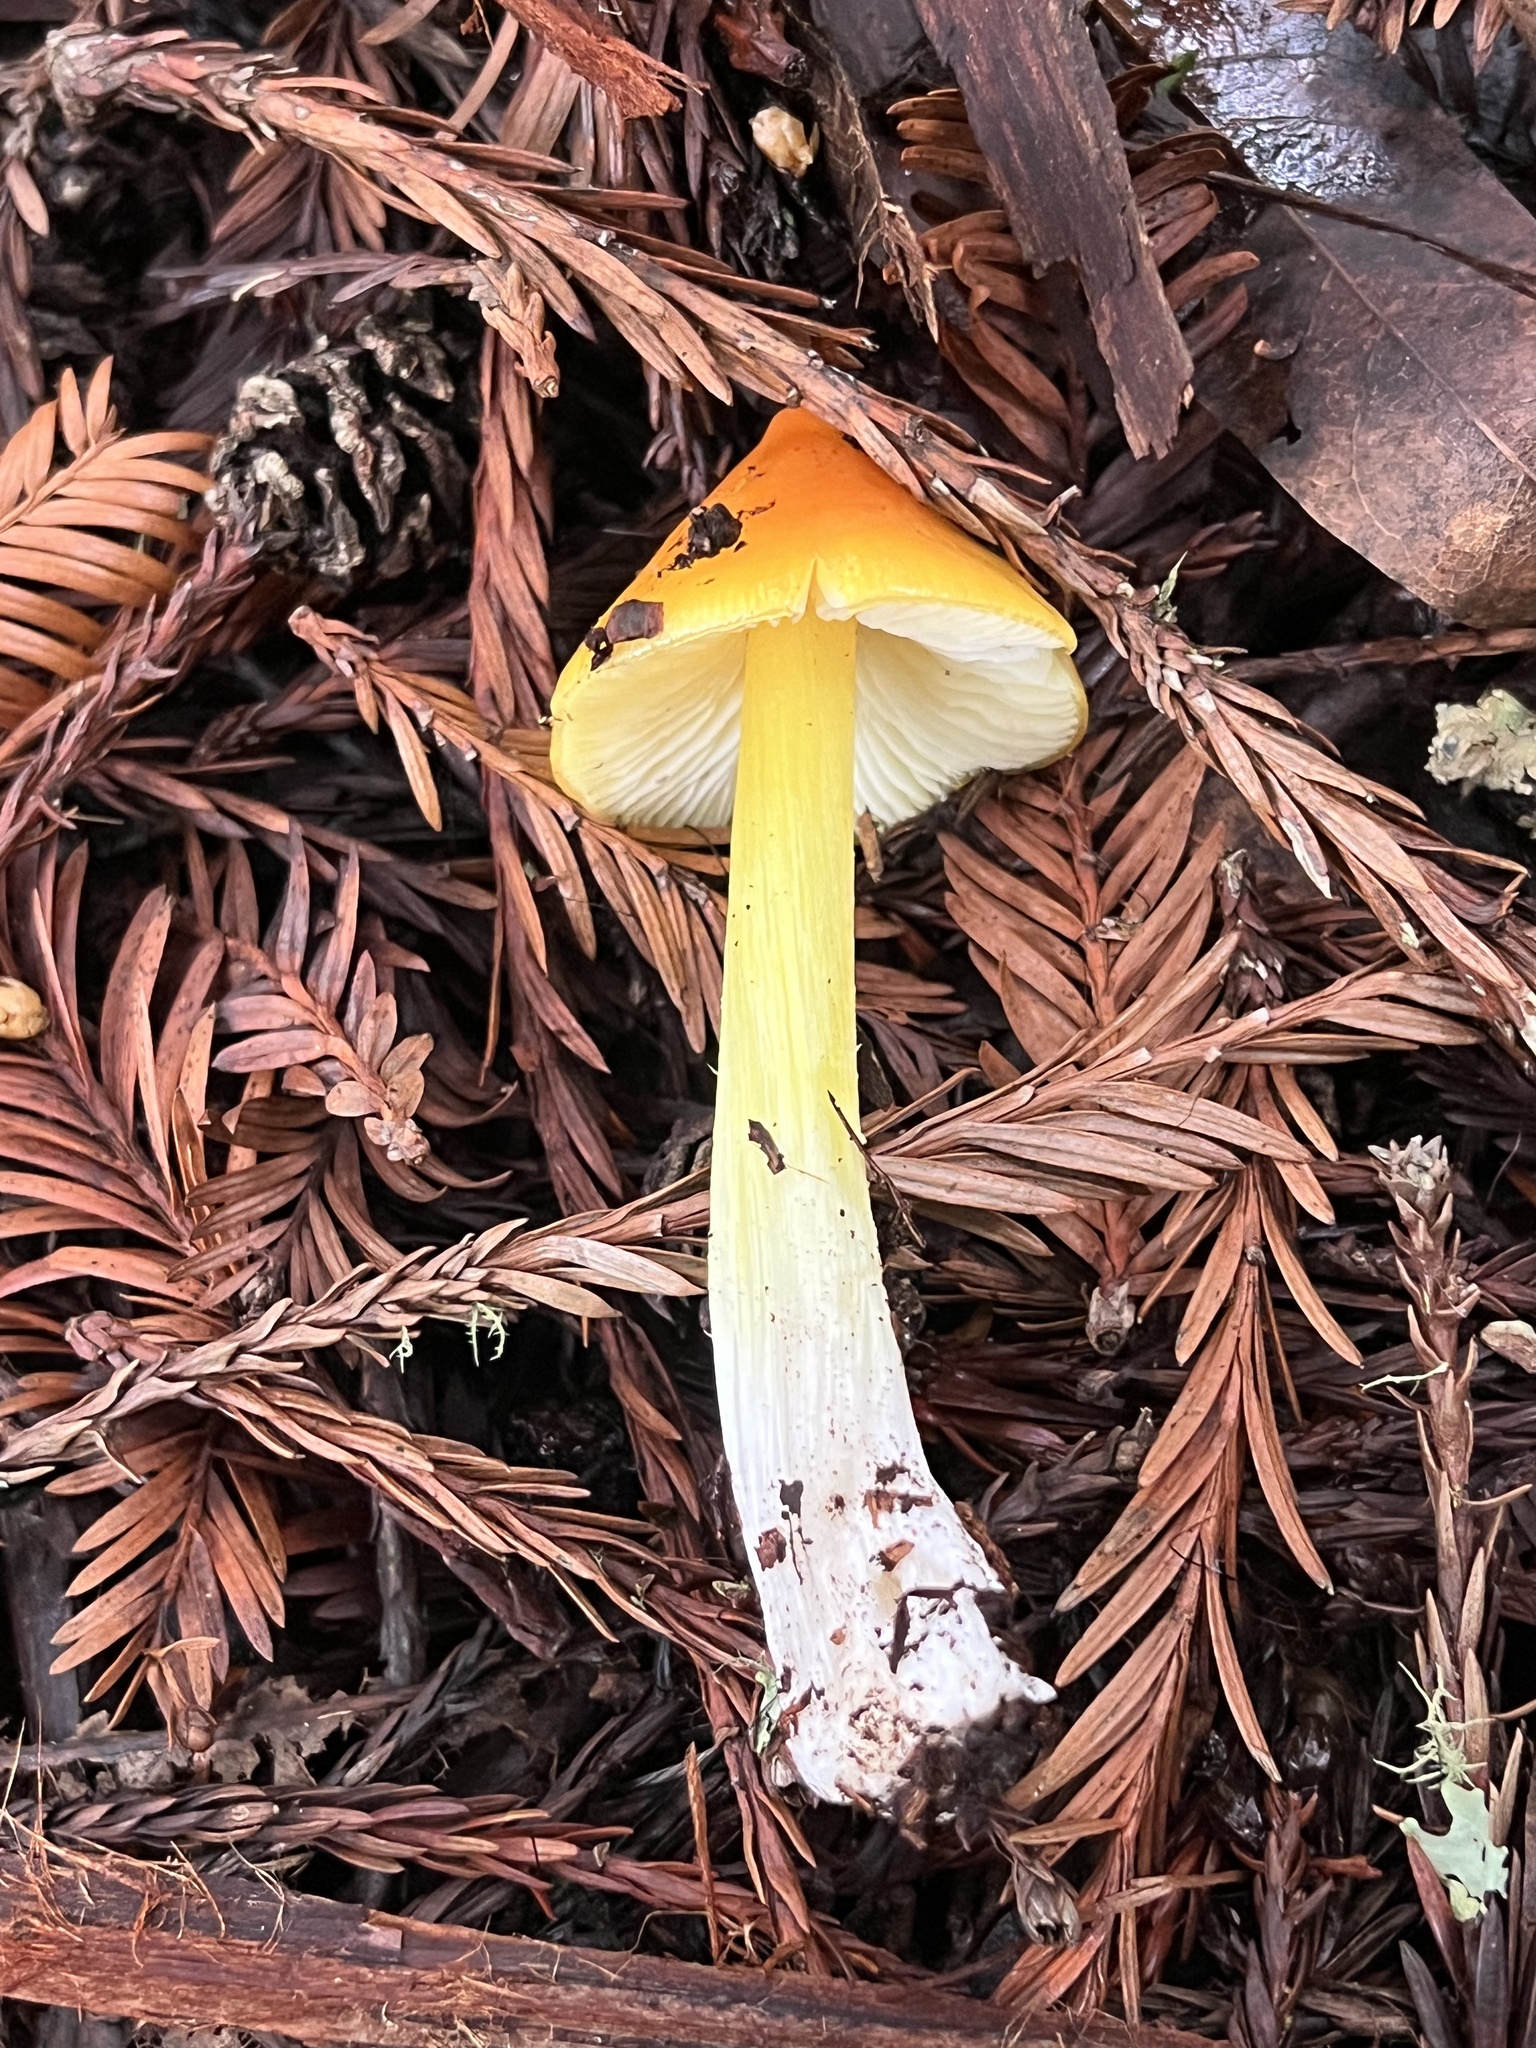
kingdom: Fungi
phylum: Basidiomycota
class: Agaricomycetes
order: Agaricales
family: Hygrophoraceae
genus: Hygrocybe
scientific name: Hygrocybe acutoconica
